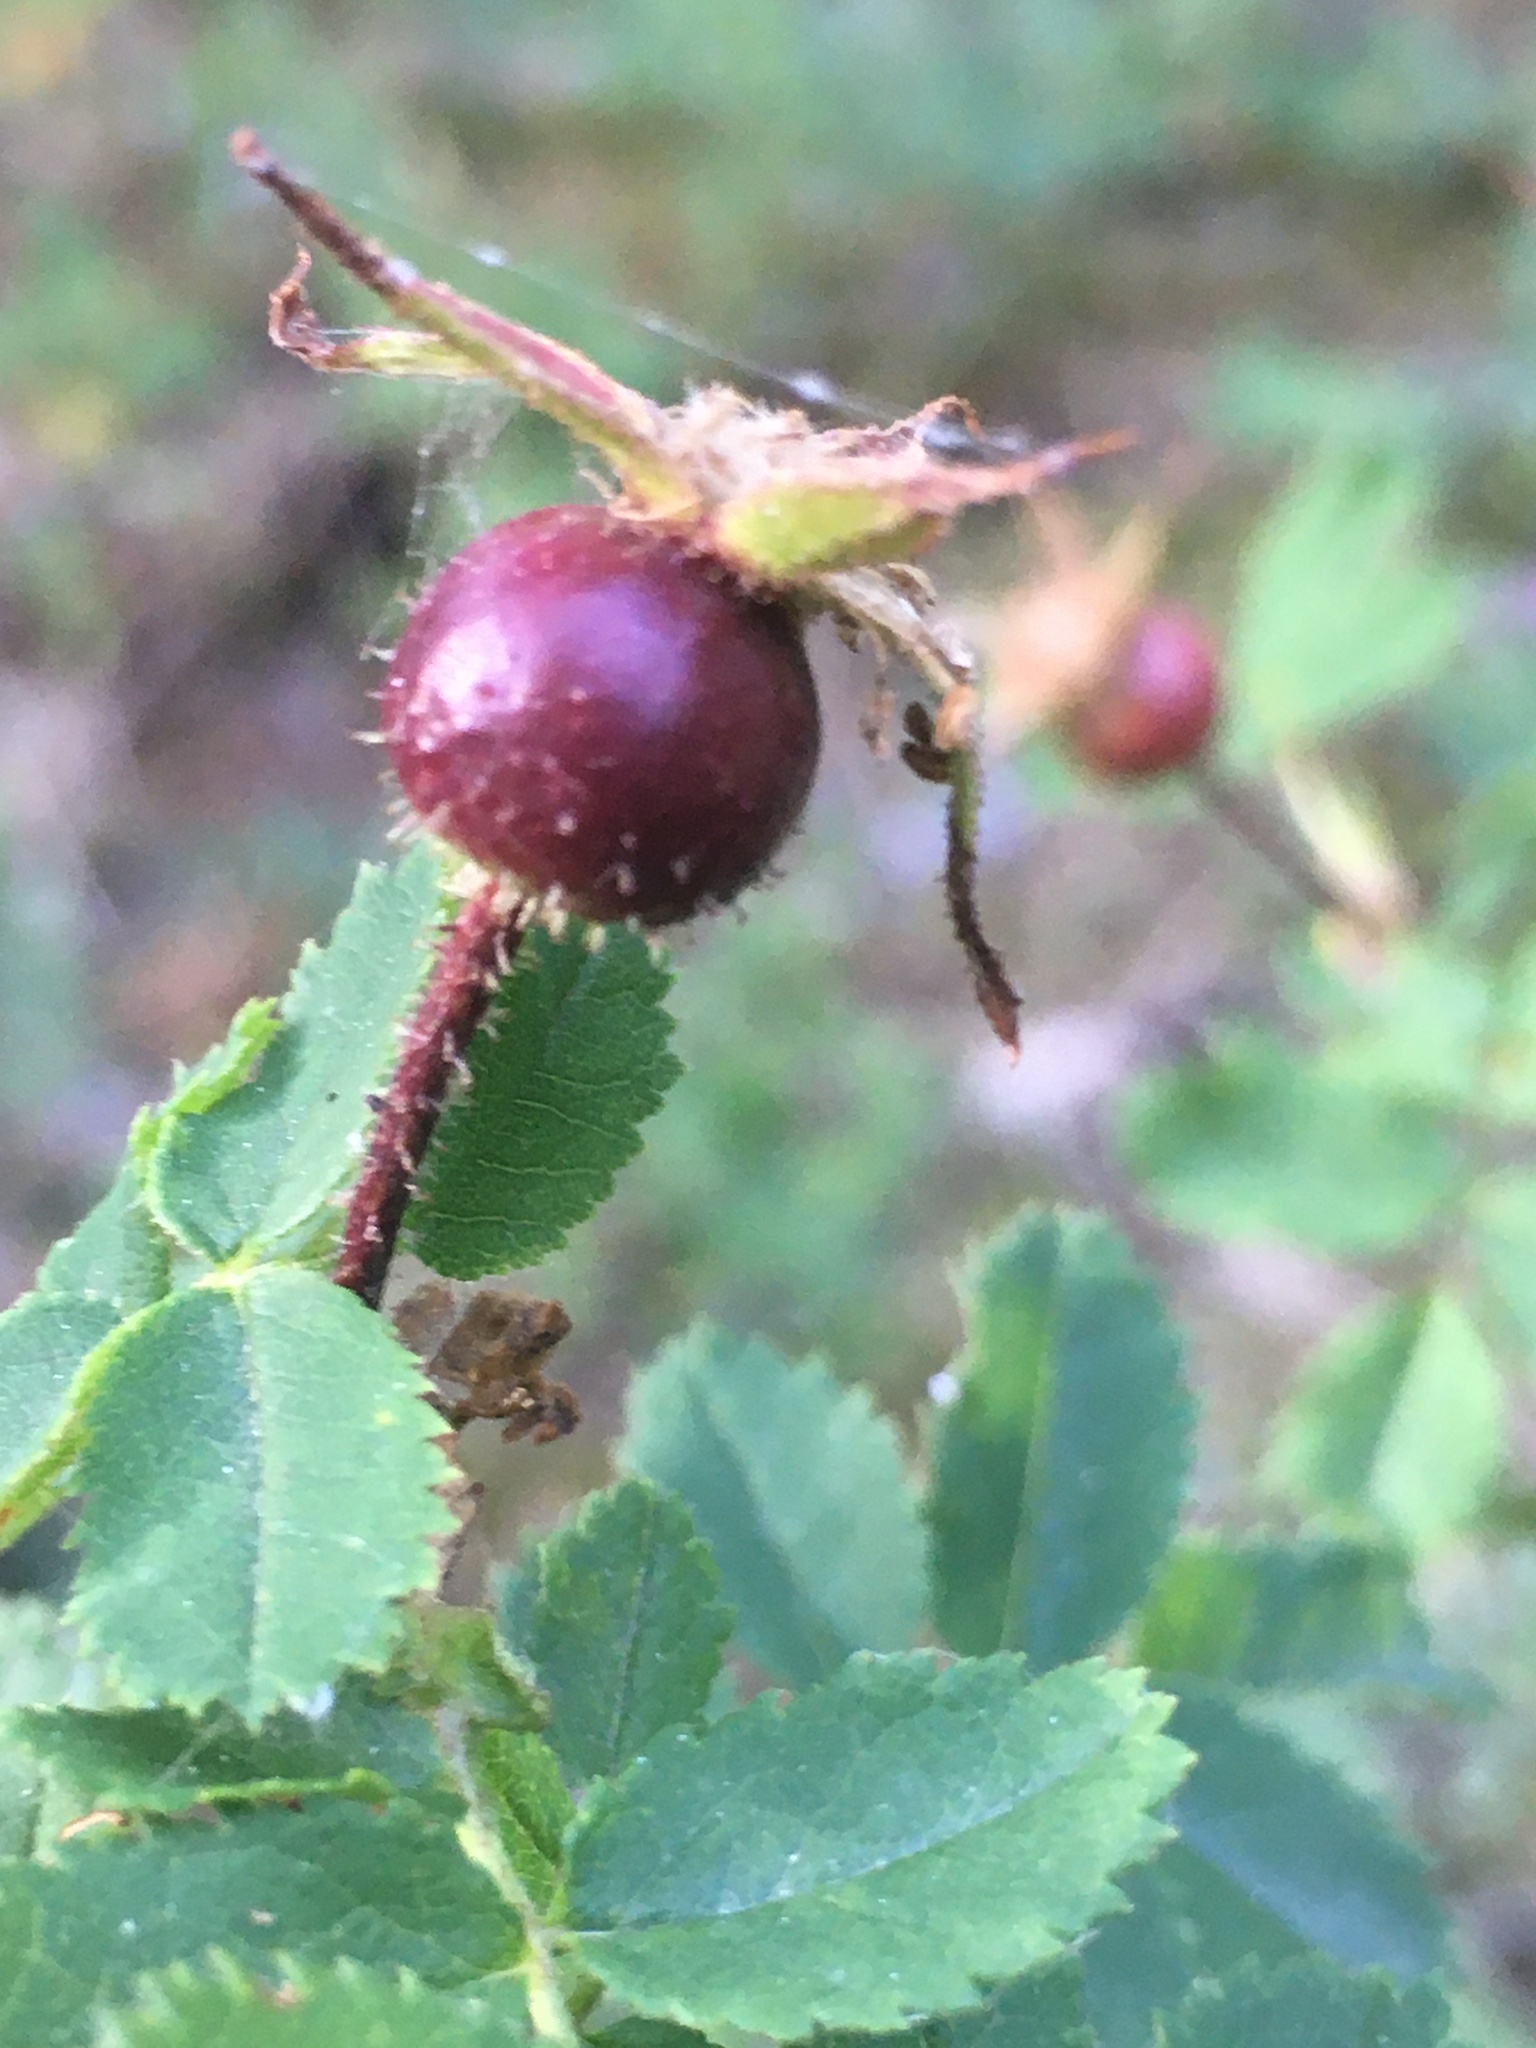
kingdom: Plantae
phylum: Tracheophyta
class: Magnoliopsida
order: Rosales
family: Rosaceae
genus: Rosa
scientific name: Rosa spinosissima
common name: Burnet rose
